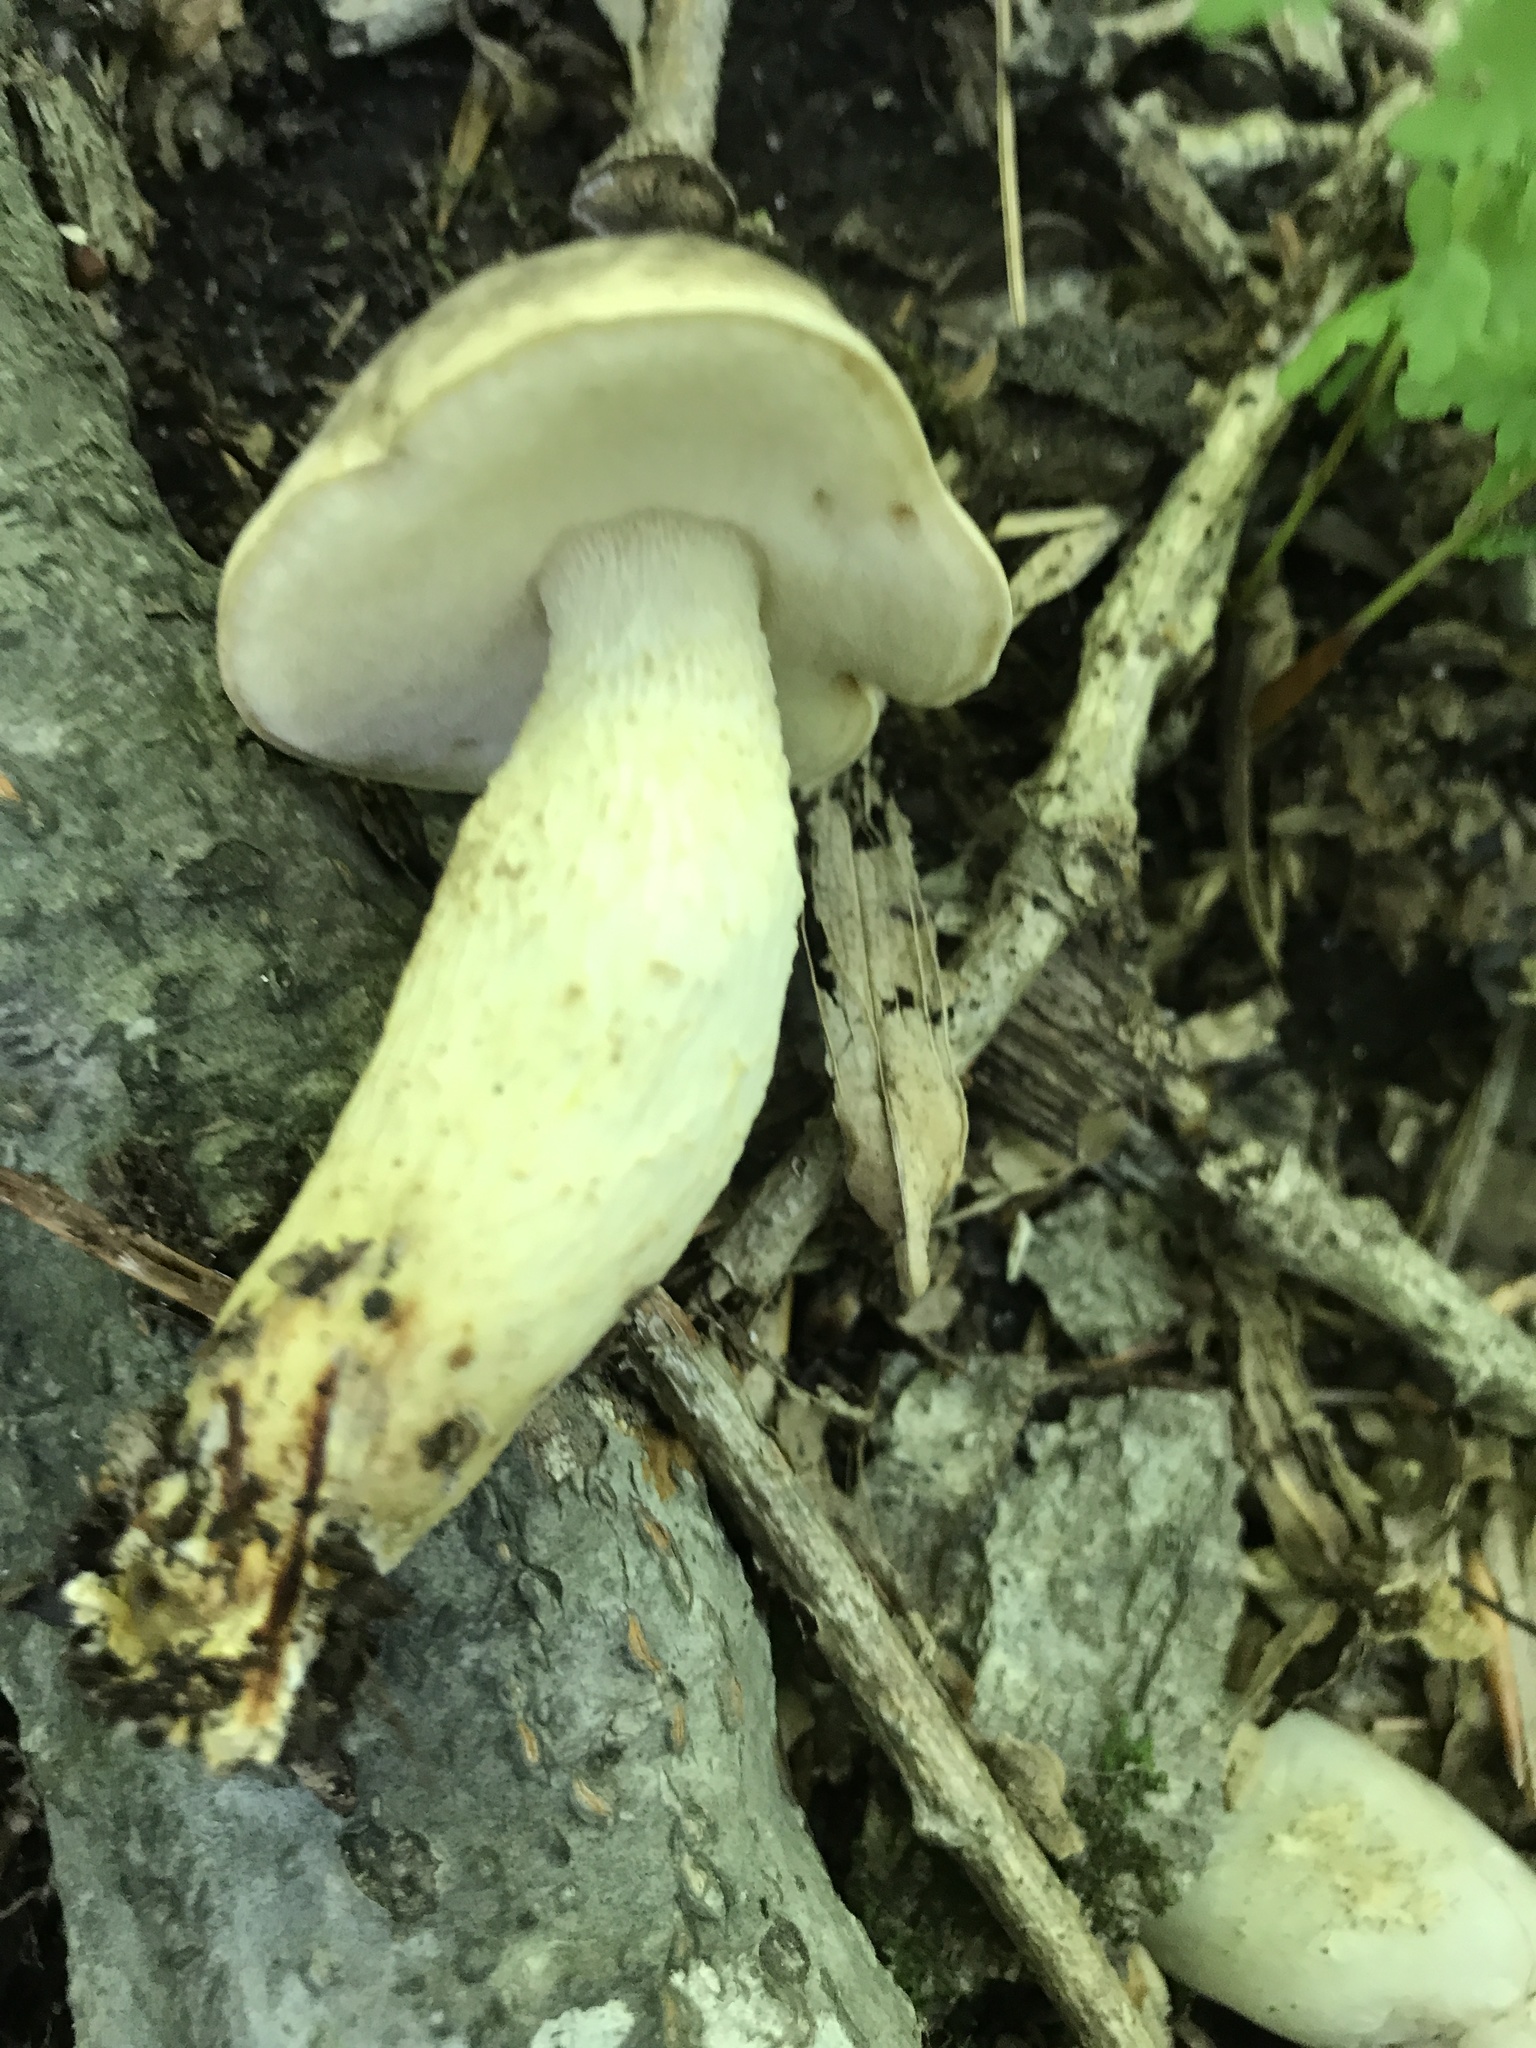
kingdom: Fungi
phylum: Basidiomycota
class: Agaricomycetes
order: Boletales
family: Boletaceae
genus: Retiboletus
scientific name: Retiboletus griseus
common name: Grey bolete
